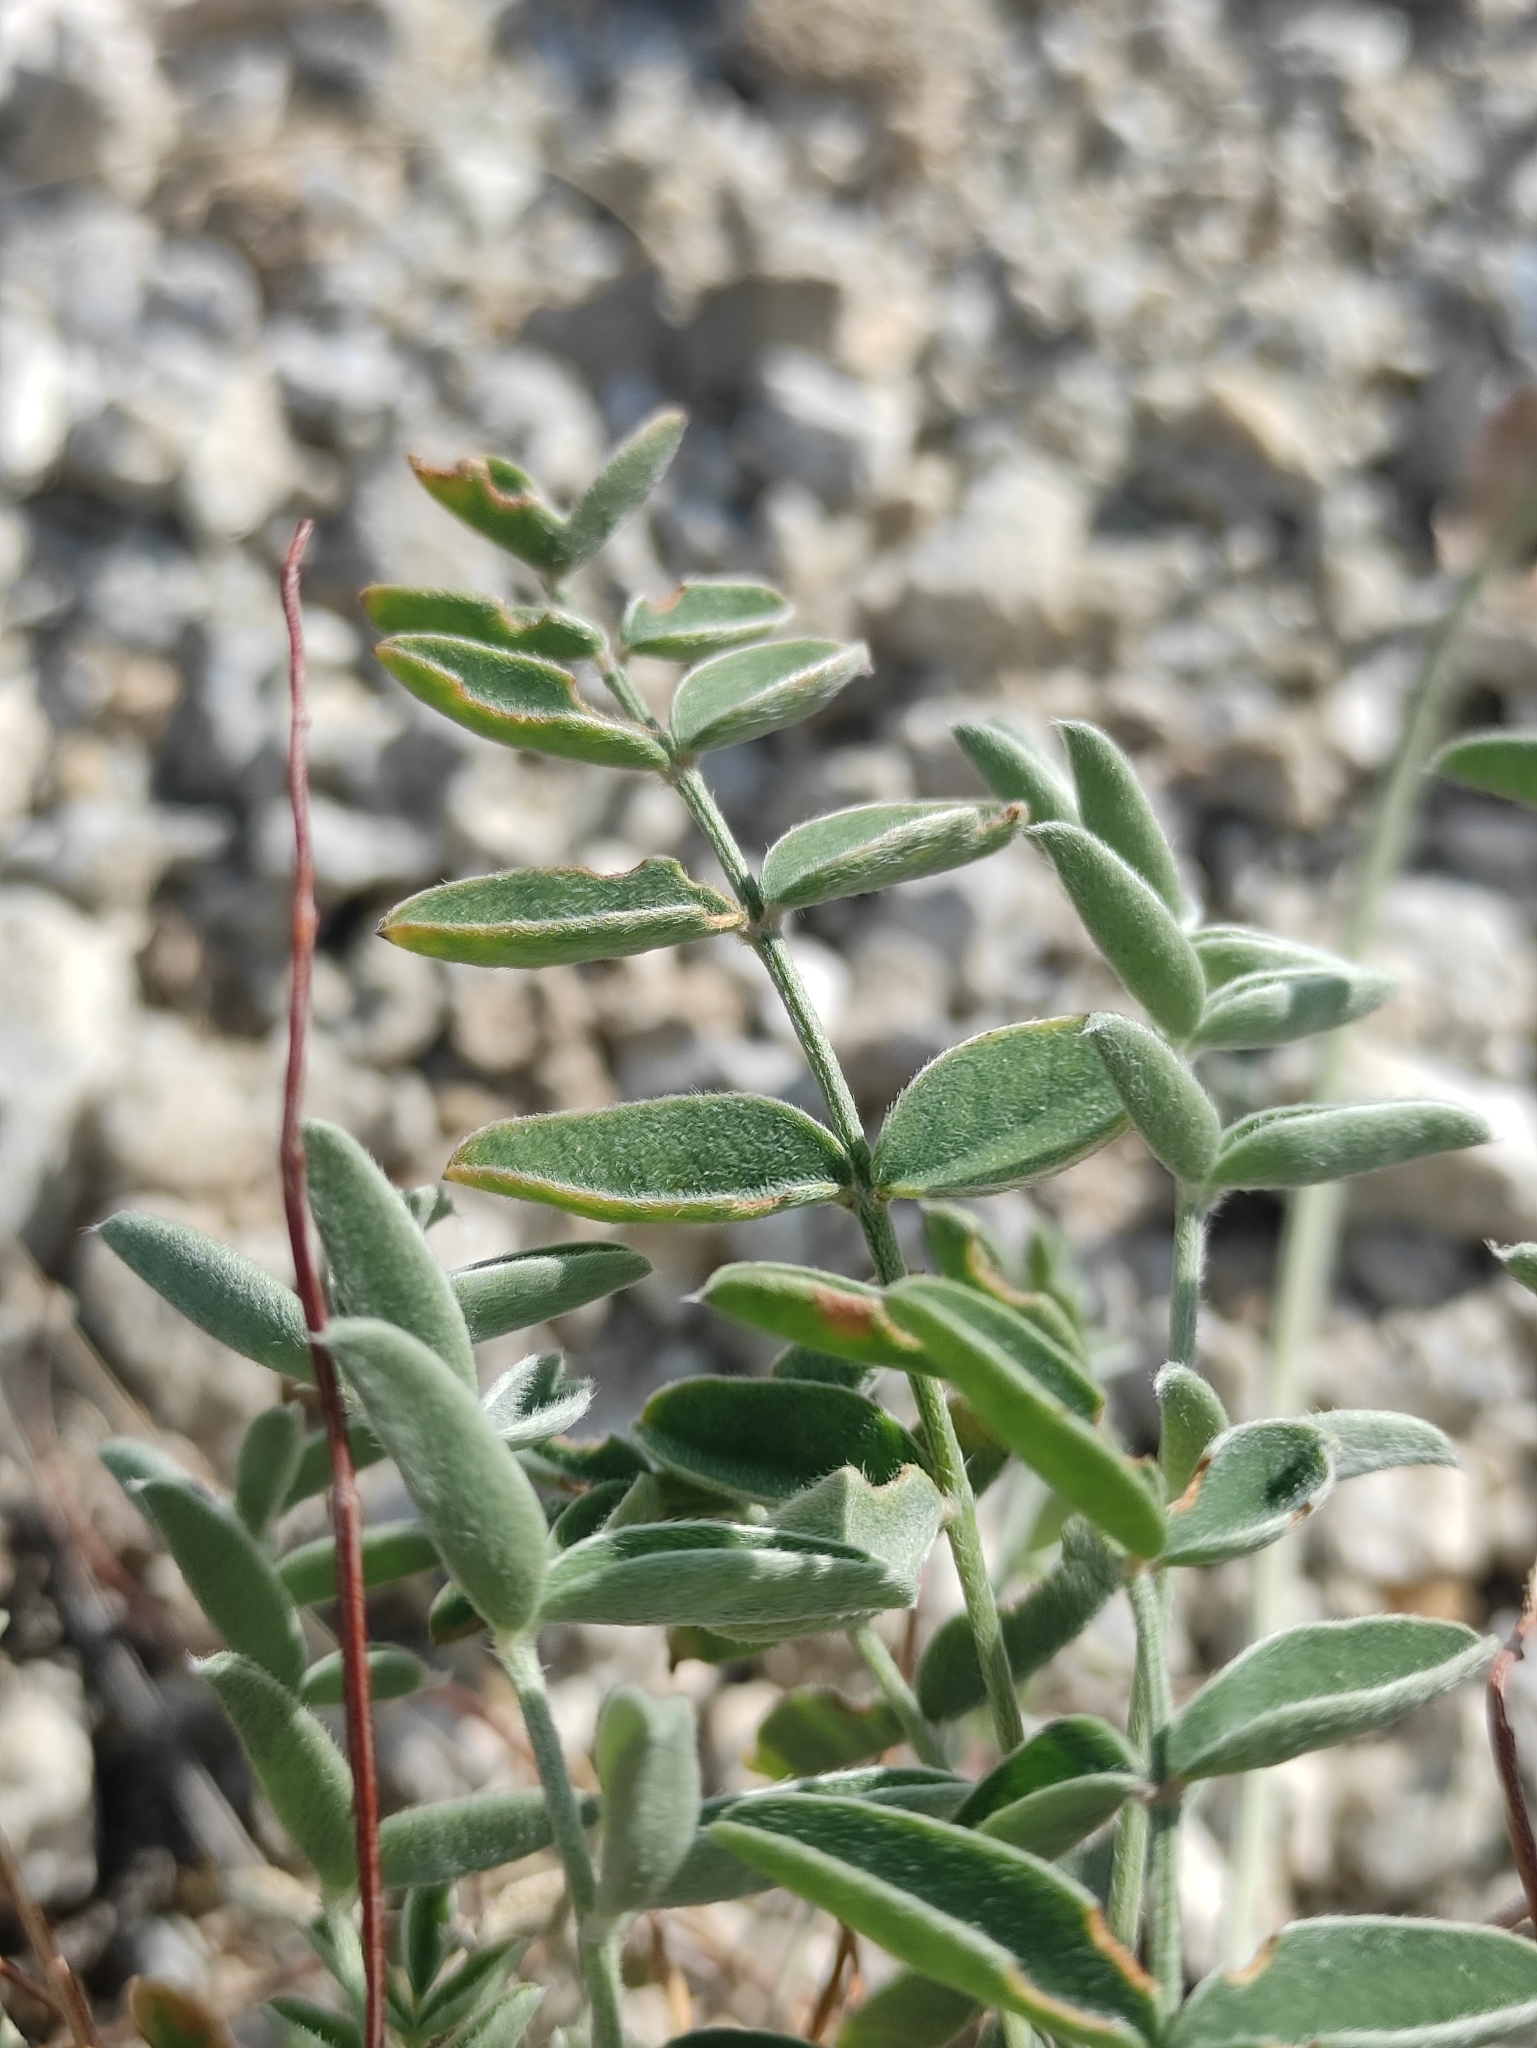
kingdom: Plantae
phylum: Tracheophyta
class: Magnoliopsida
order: Fabales
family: Fabaceae
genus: Hedysarum
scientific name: Hedysarum gmelinii
